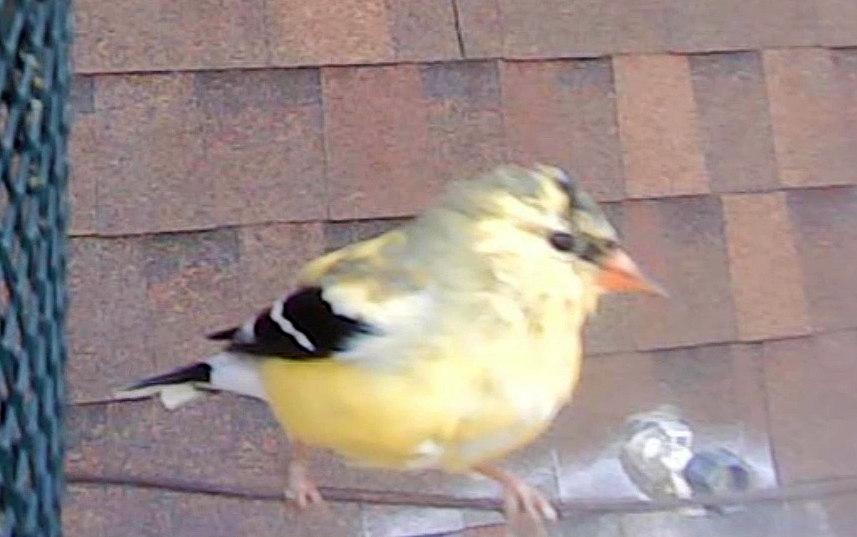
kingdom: Animalia
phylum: Chordata
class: Aves
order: Passeriformes
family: Fringillidae
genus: Spinus
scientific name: Spinus tristis
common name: American goldfinch
